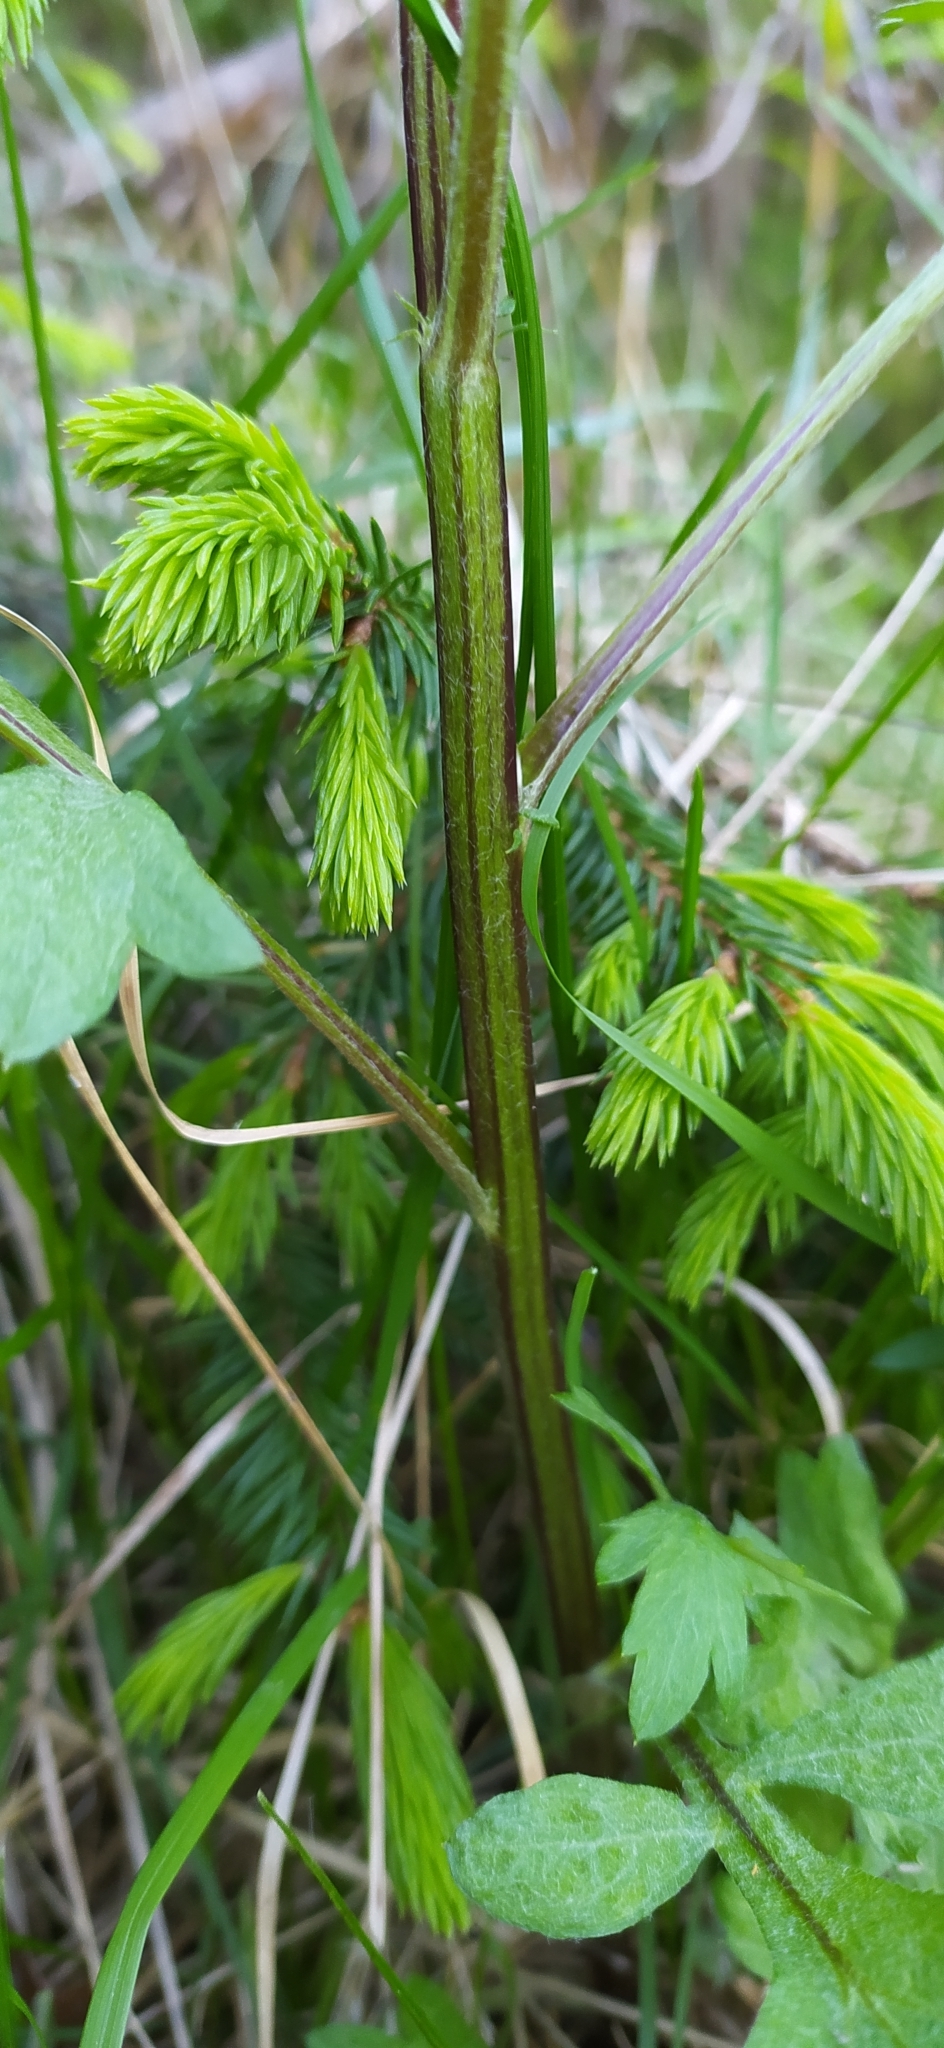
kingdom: Plantae
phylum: Tracheophyta
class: Magnoliopsida
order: Asterales
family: Asteraceae
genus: Artemisia
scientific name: Artemisia vulgaris
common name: Mugwort
